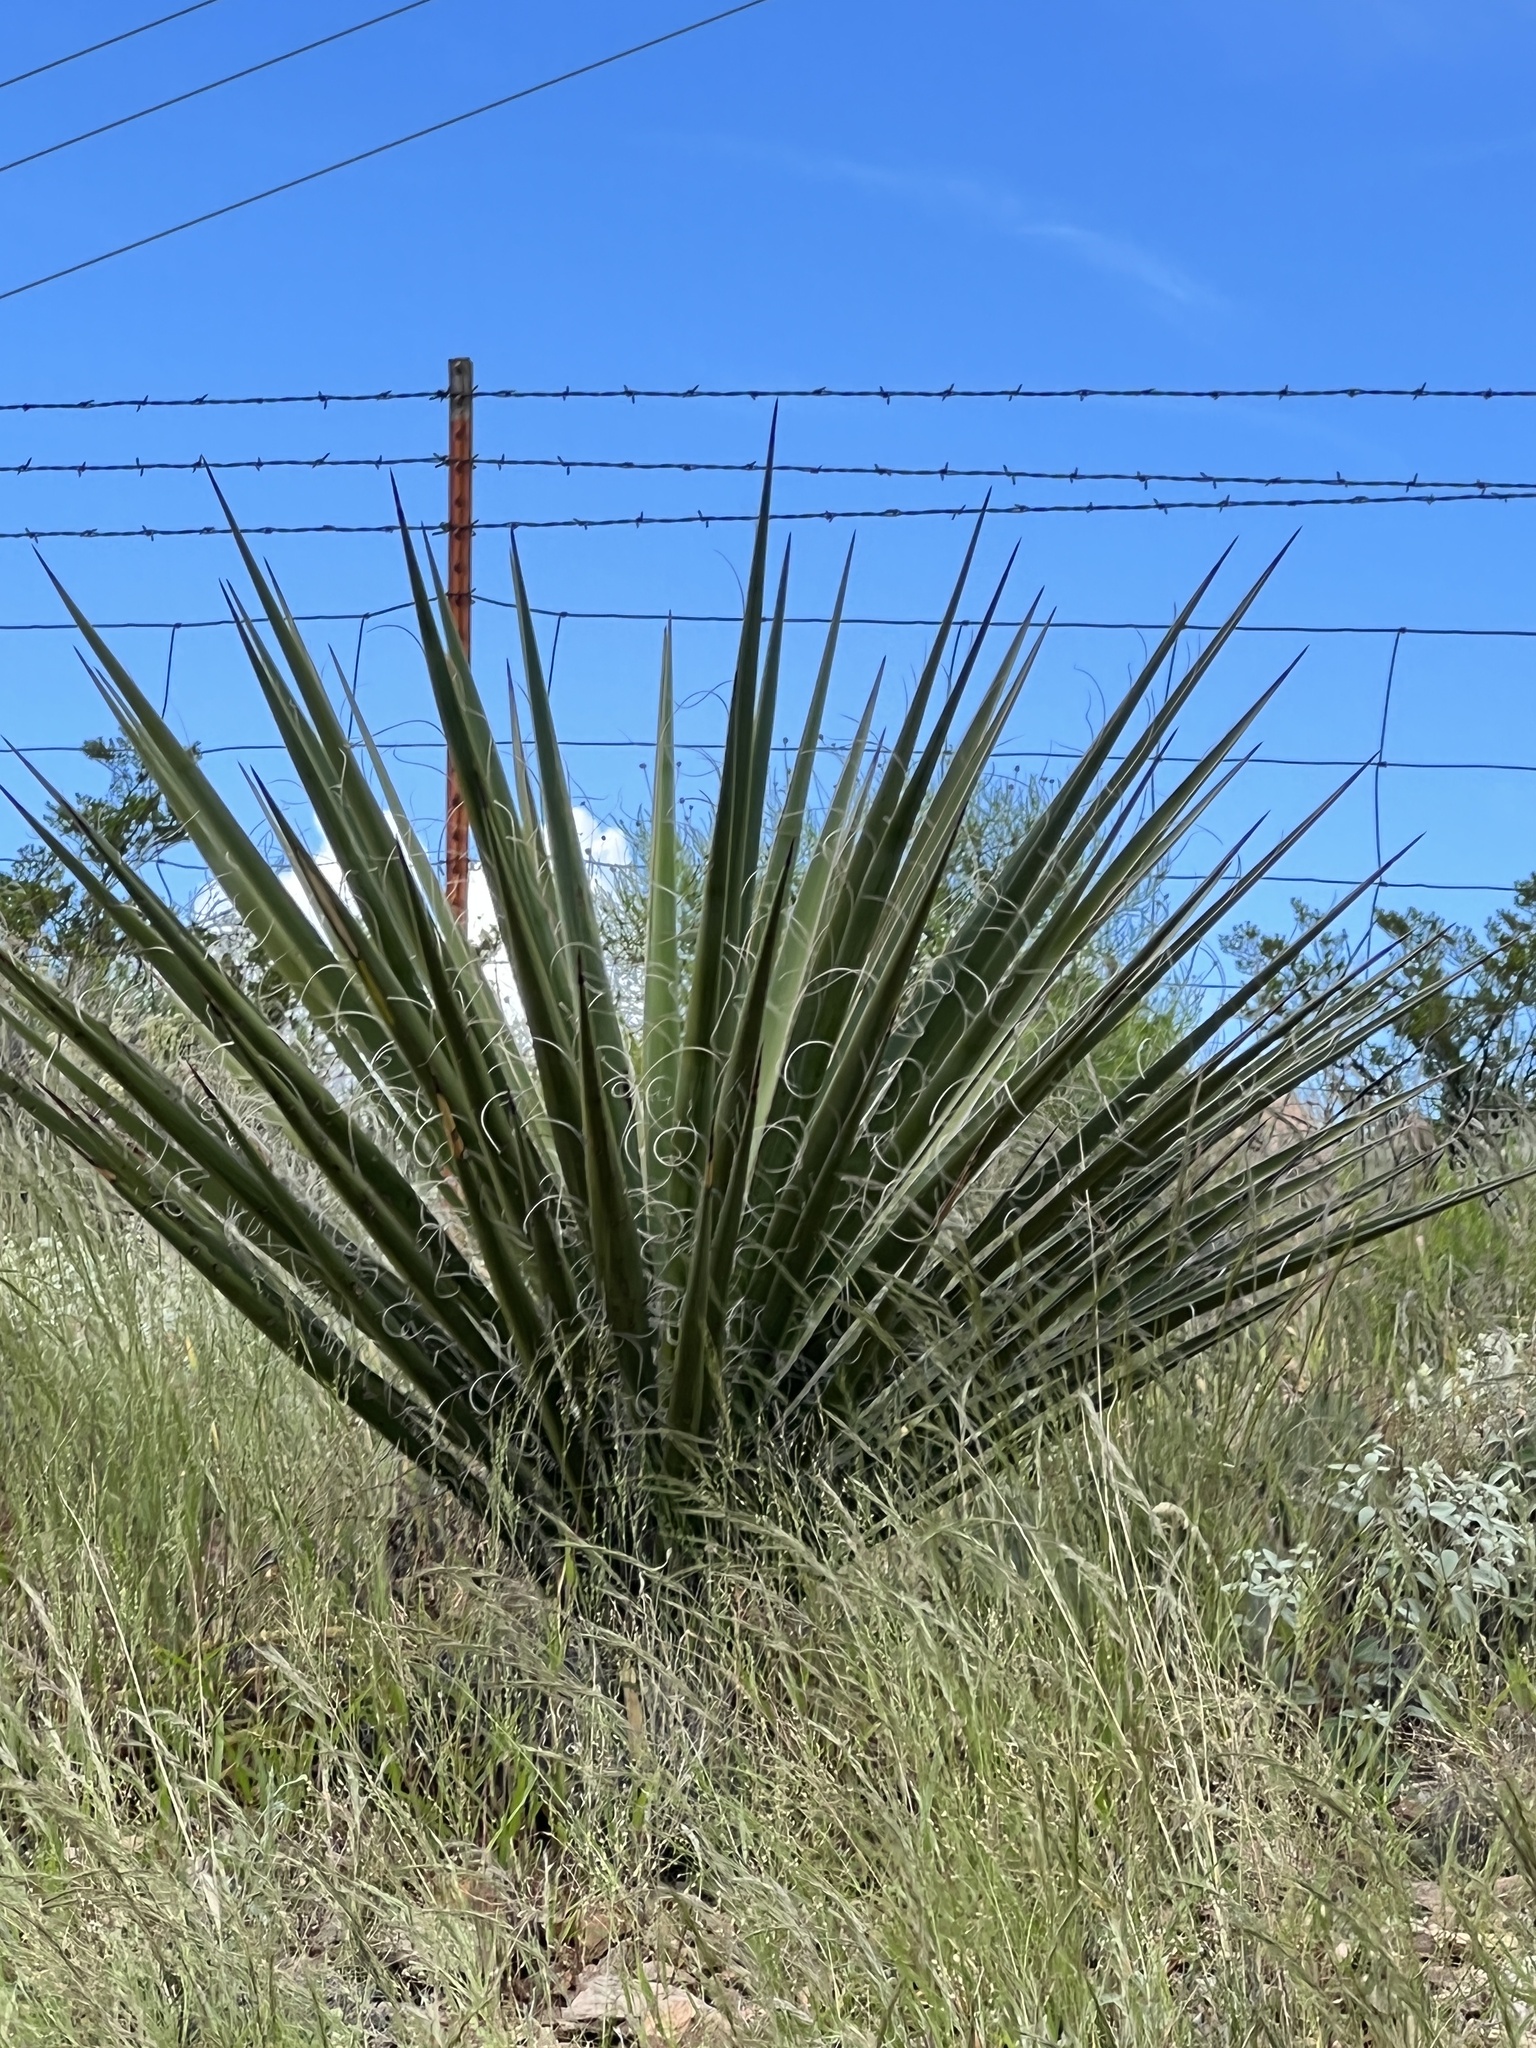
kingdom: Plantae
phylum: Tracheophyta
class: Liliopsida
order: Asparagales
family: Asparagaceae
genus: Yucca
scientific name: Yucca treculiana
